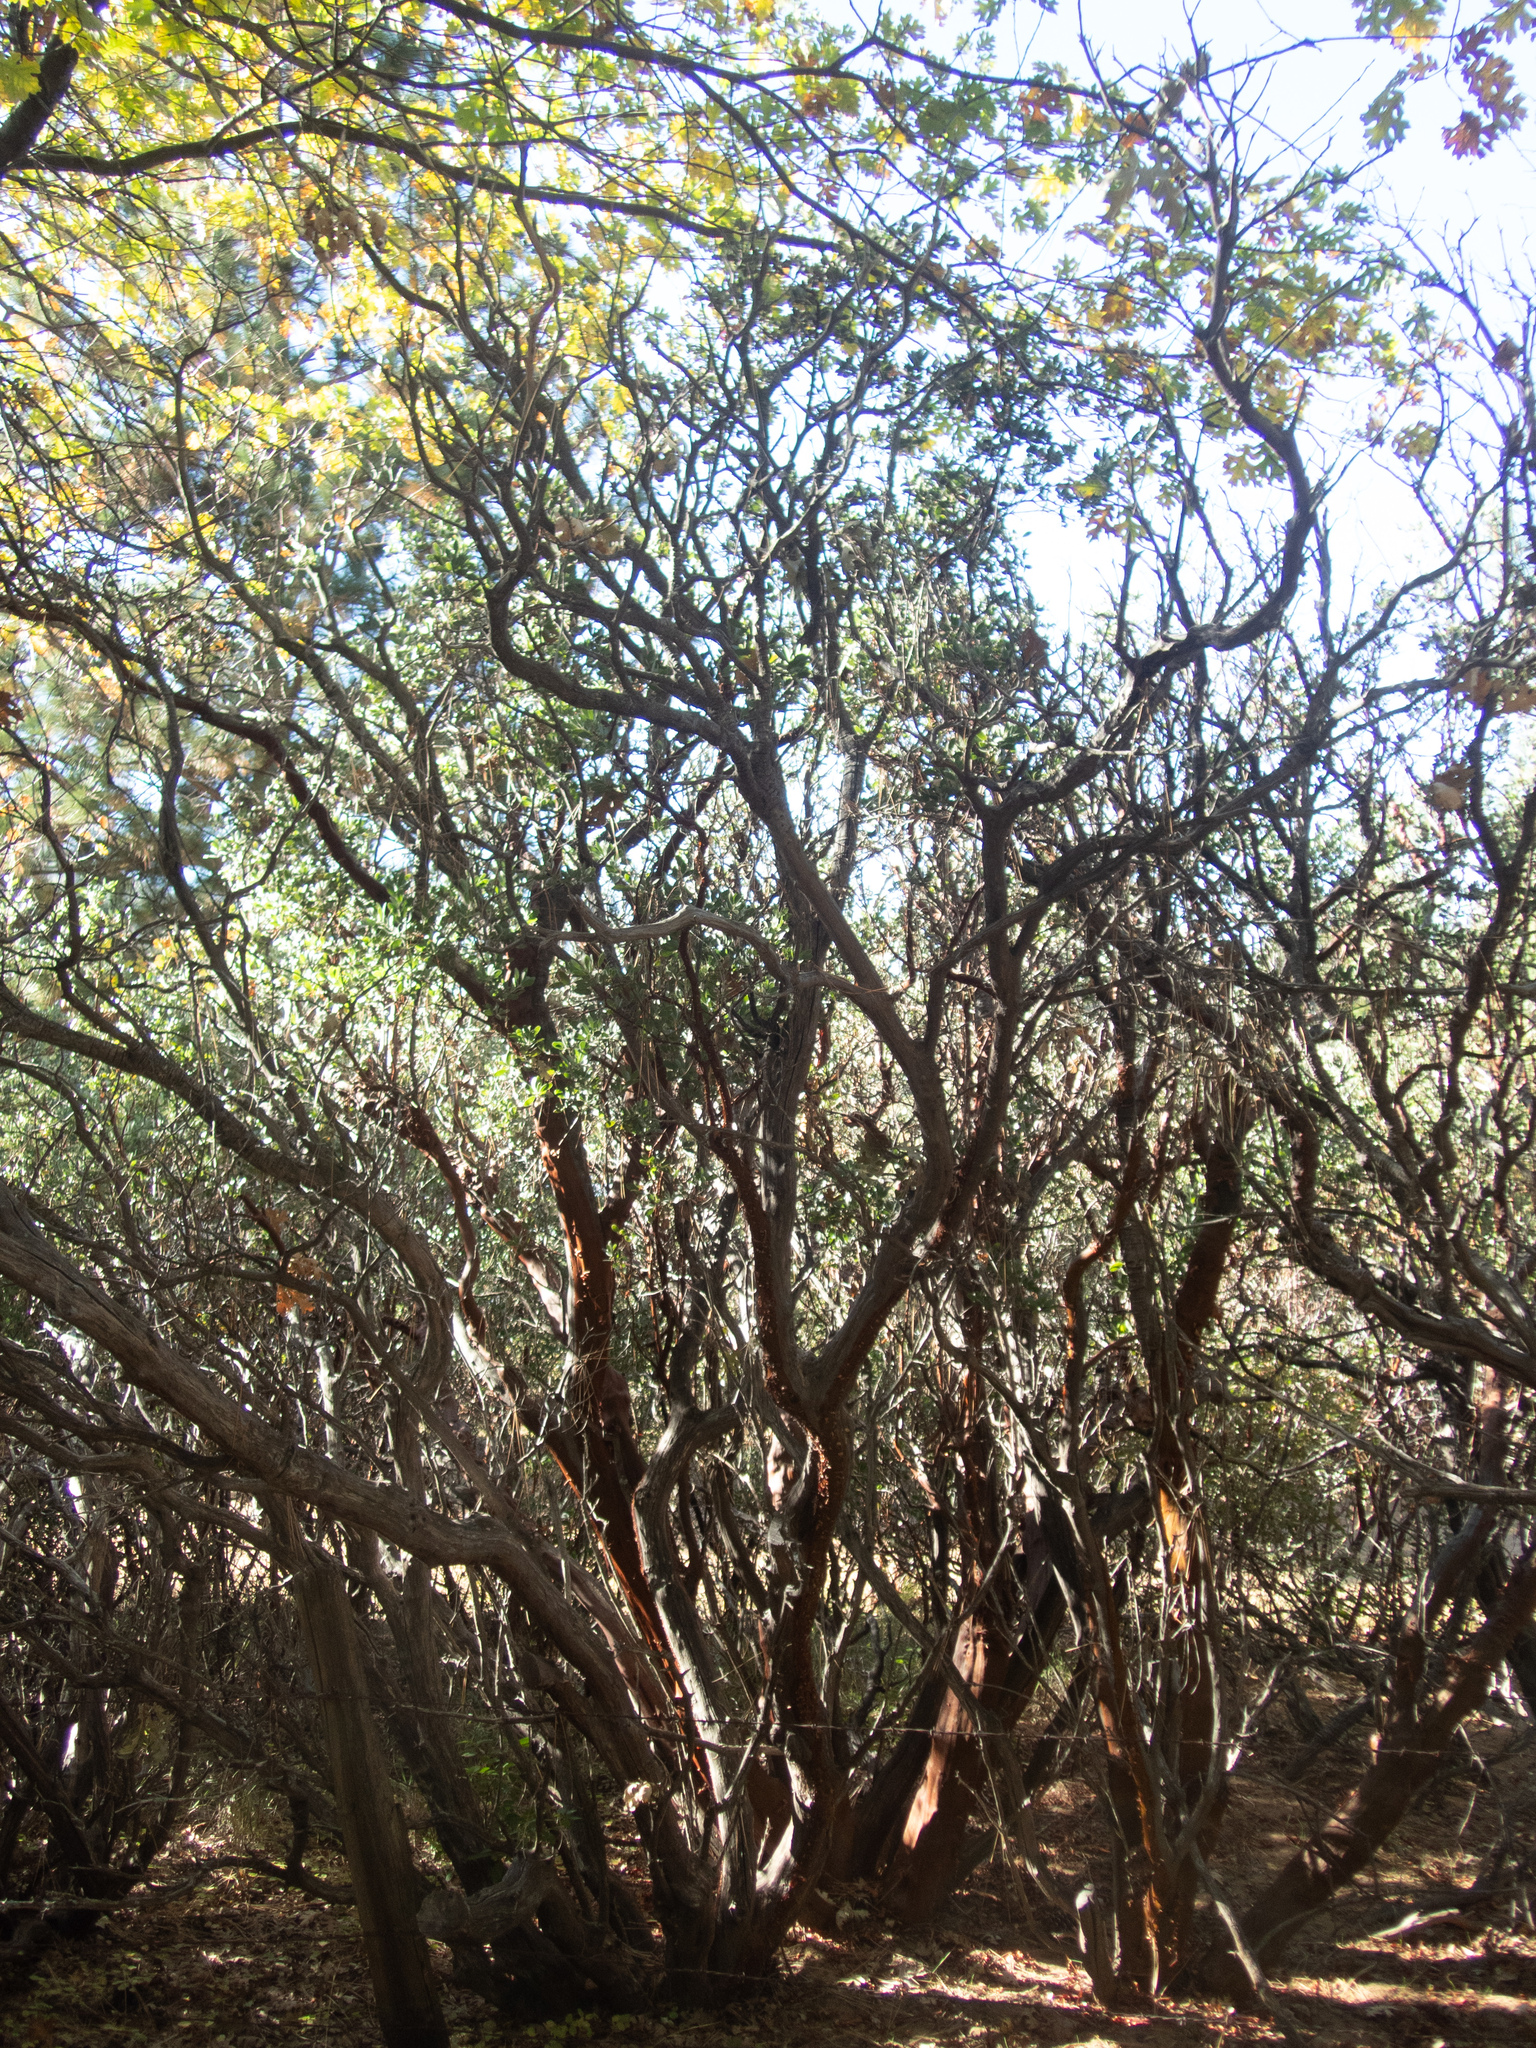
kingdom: Plantae
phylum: Tracheophyta
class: Magnoliopsida
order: Ericales
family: Ericaceae
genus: Arctostaphylos
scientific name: Arctostaphylos pungens
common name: Mexican manzanita
